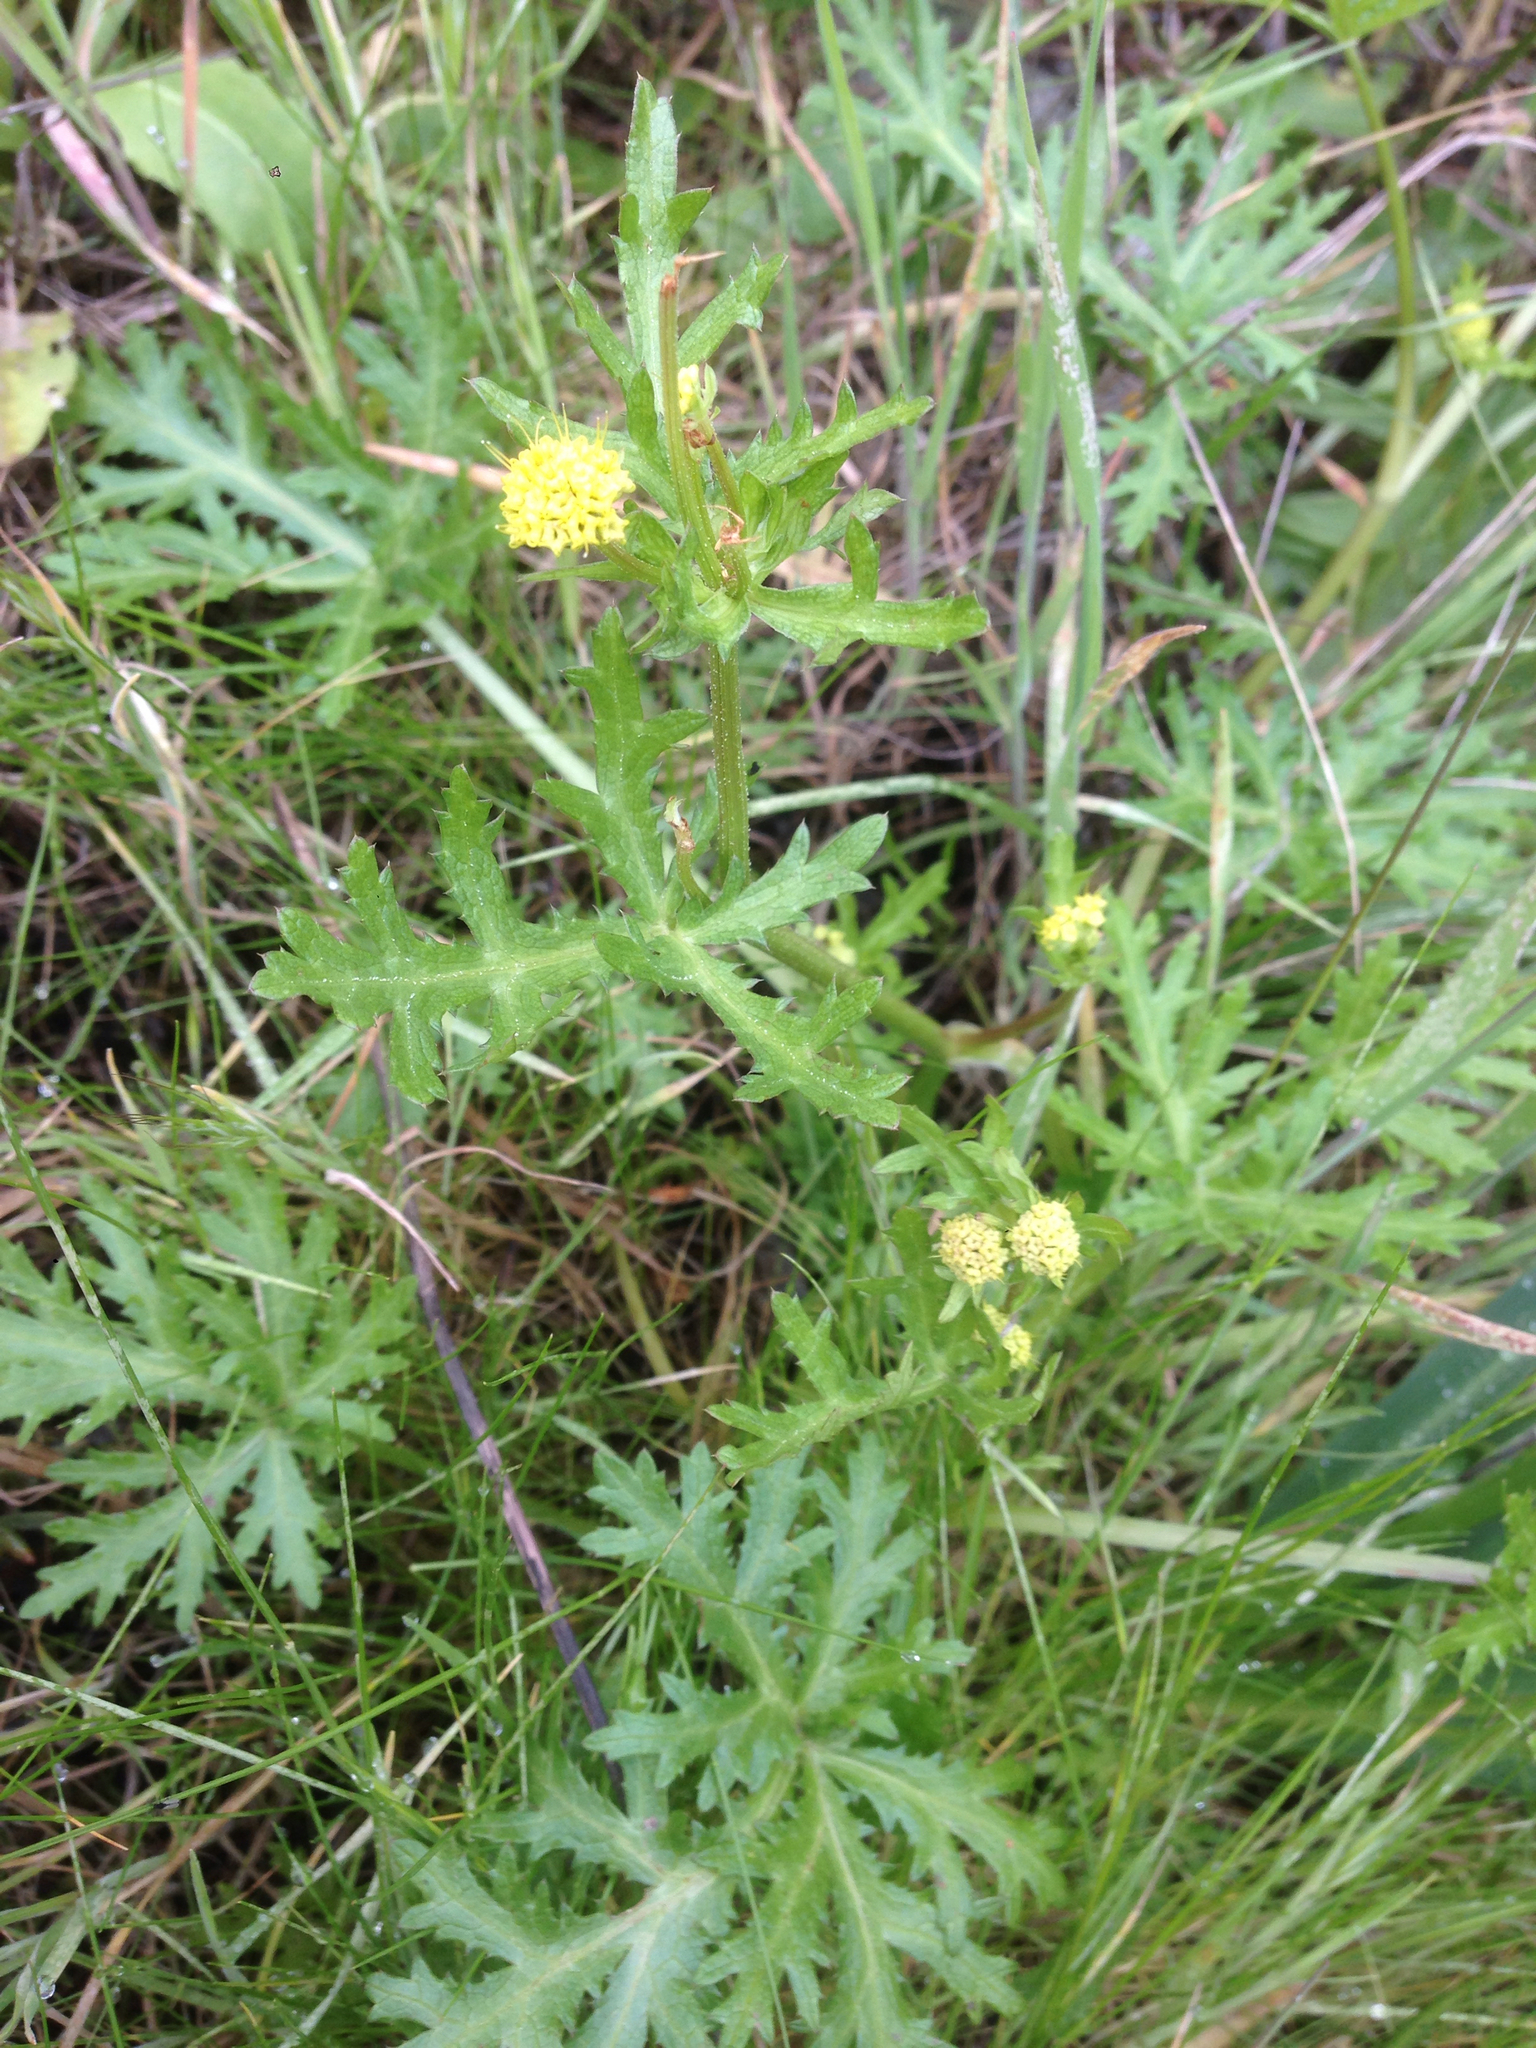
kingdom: Plantae
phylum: Tracheophyta
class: Magnoliopsida
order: Apiales
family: Apiaceae
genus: Sanicula
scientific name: Sanicula arguta
